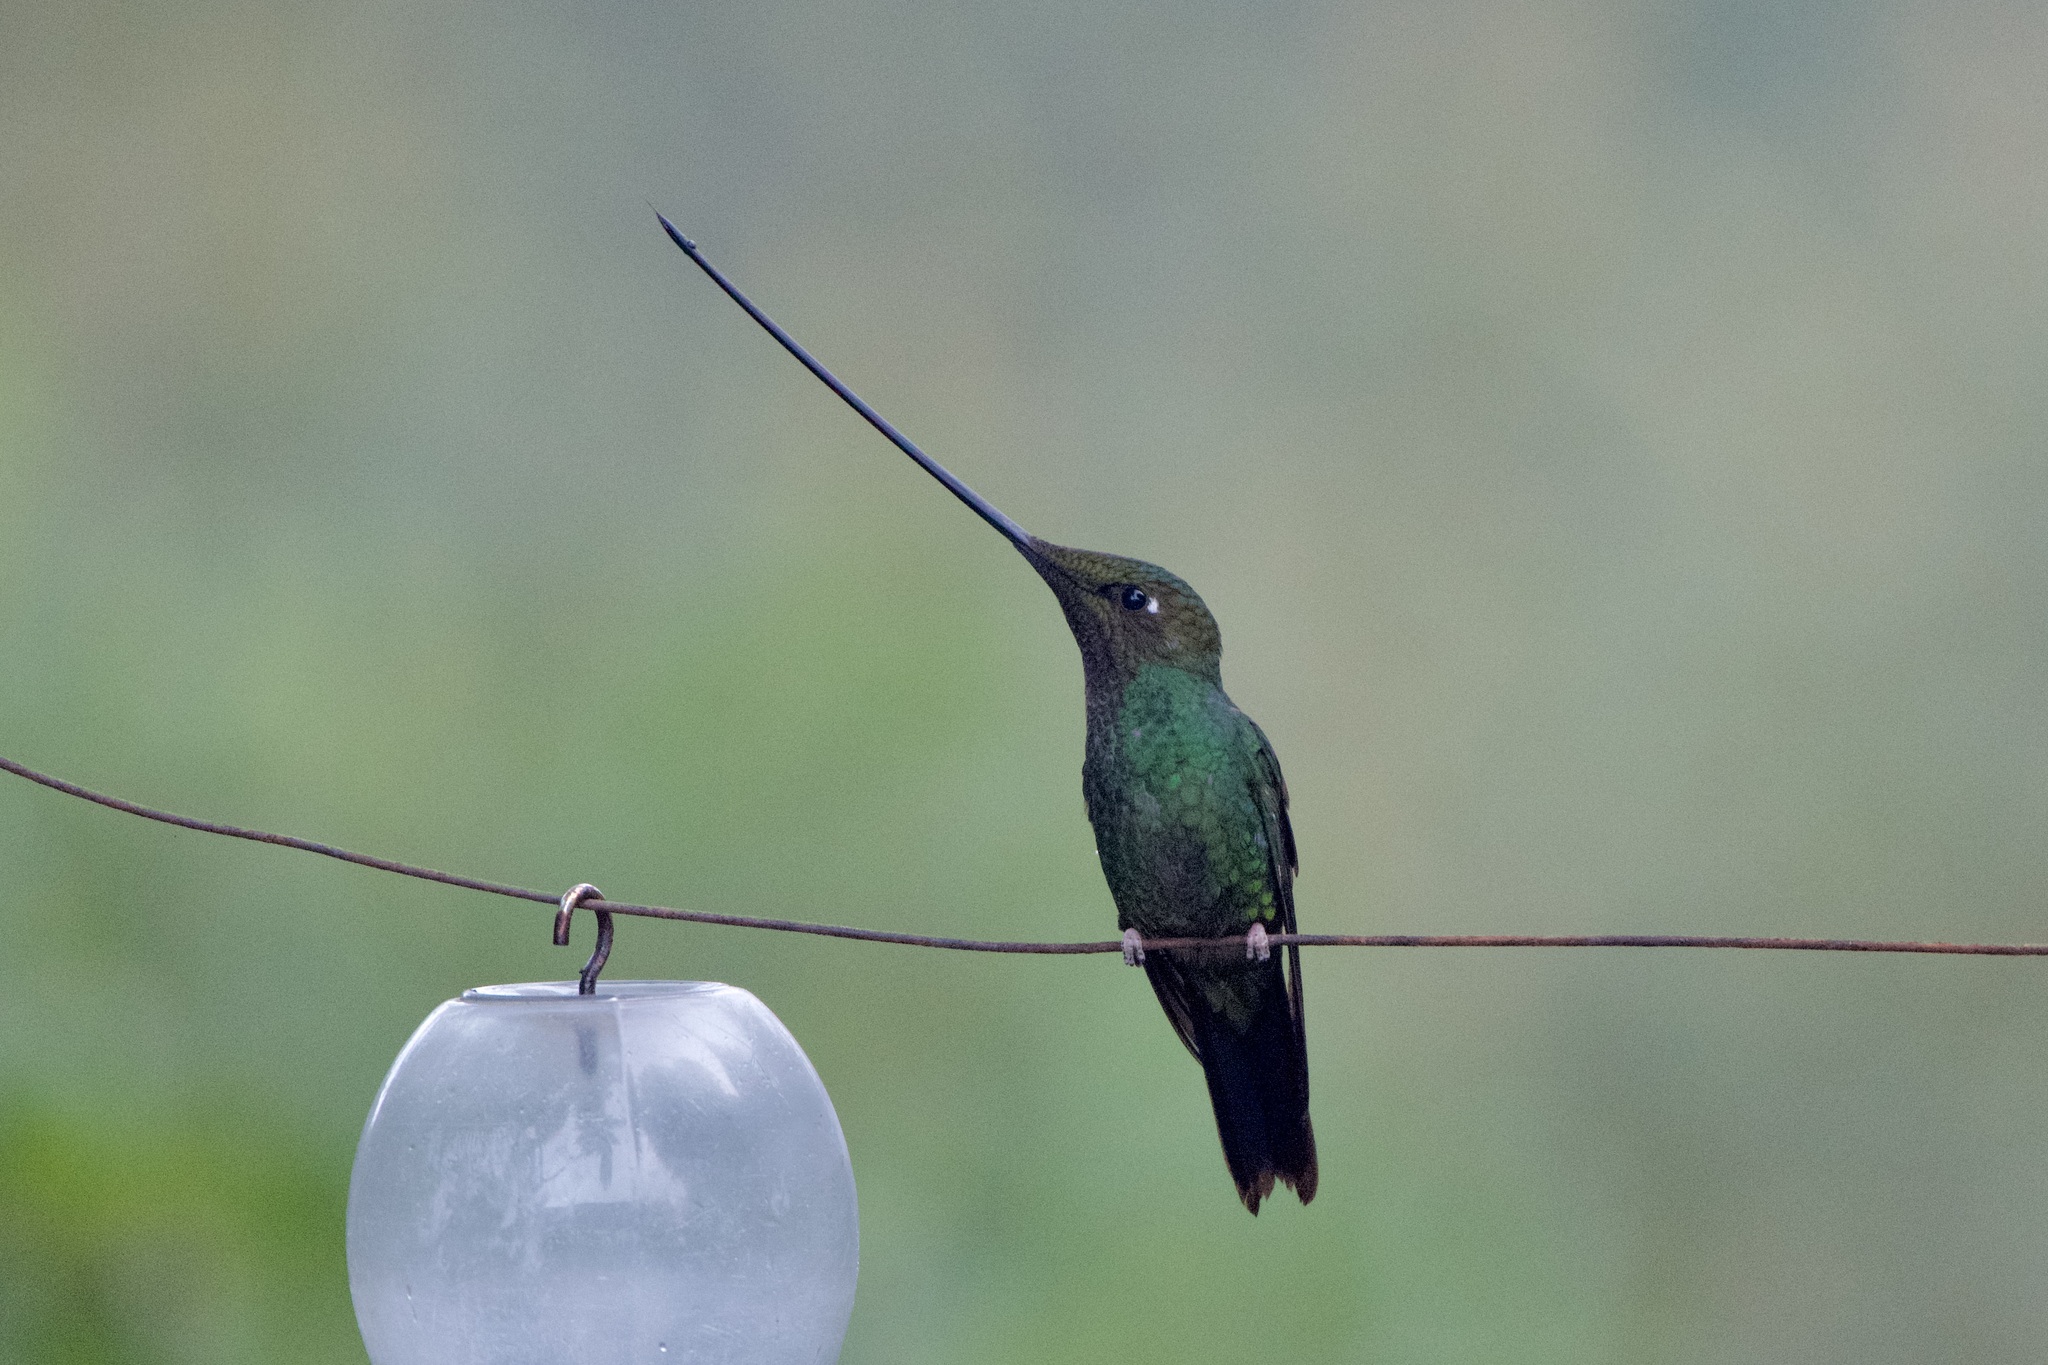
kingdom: Animalia
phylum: Chordata
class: Aves
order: Apodiformes
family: Trochilidae
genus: Ensifera
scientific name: Ensifera ensifera
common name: Sword-billed hummingbird
